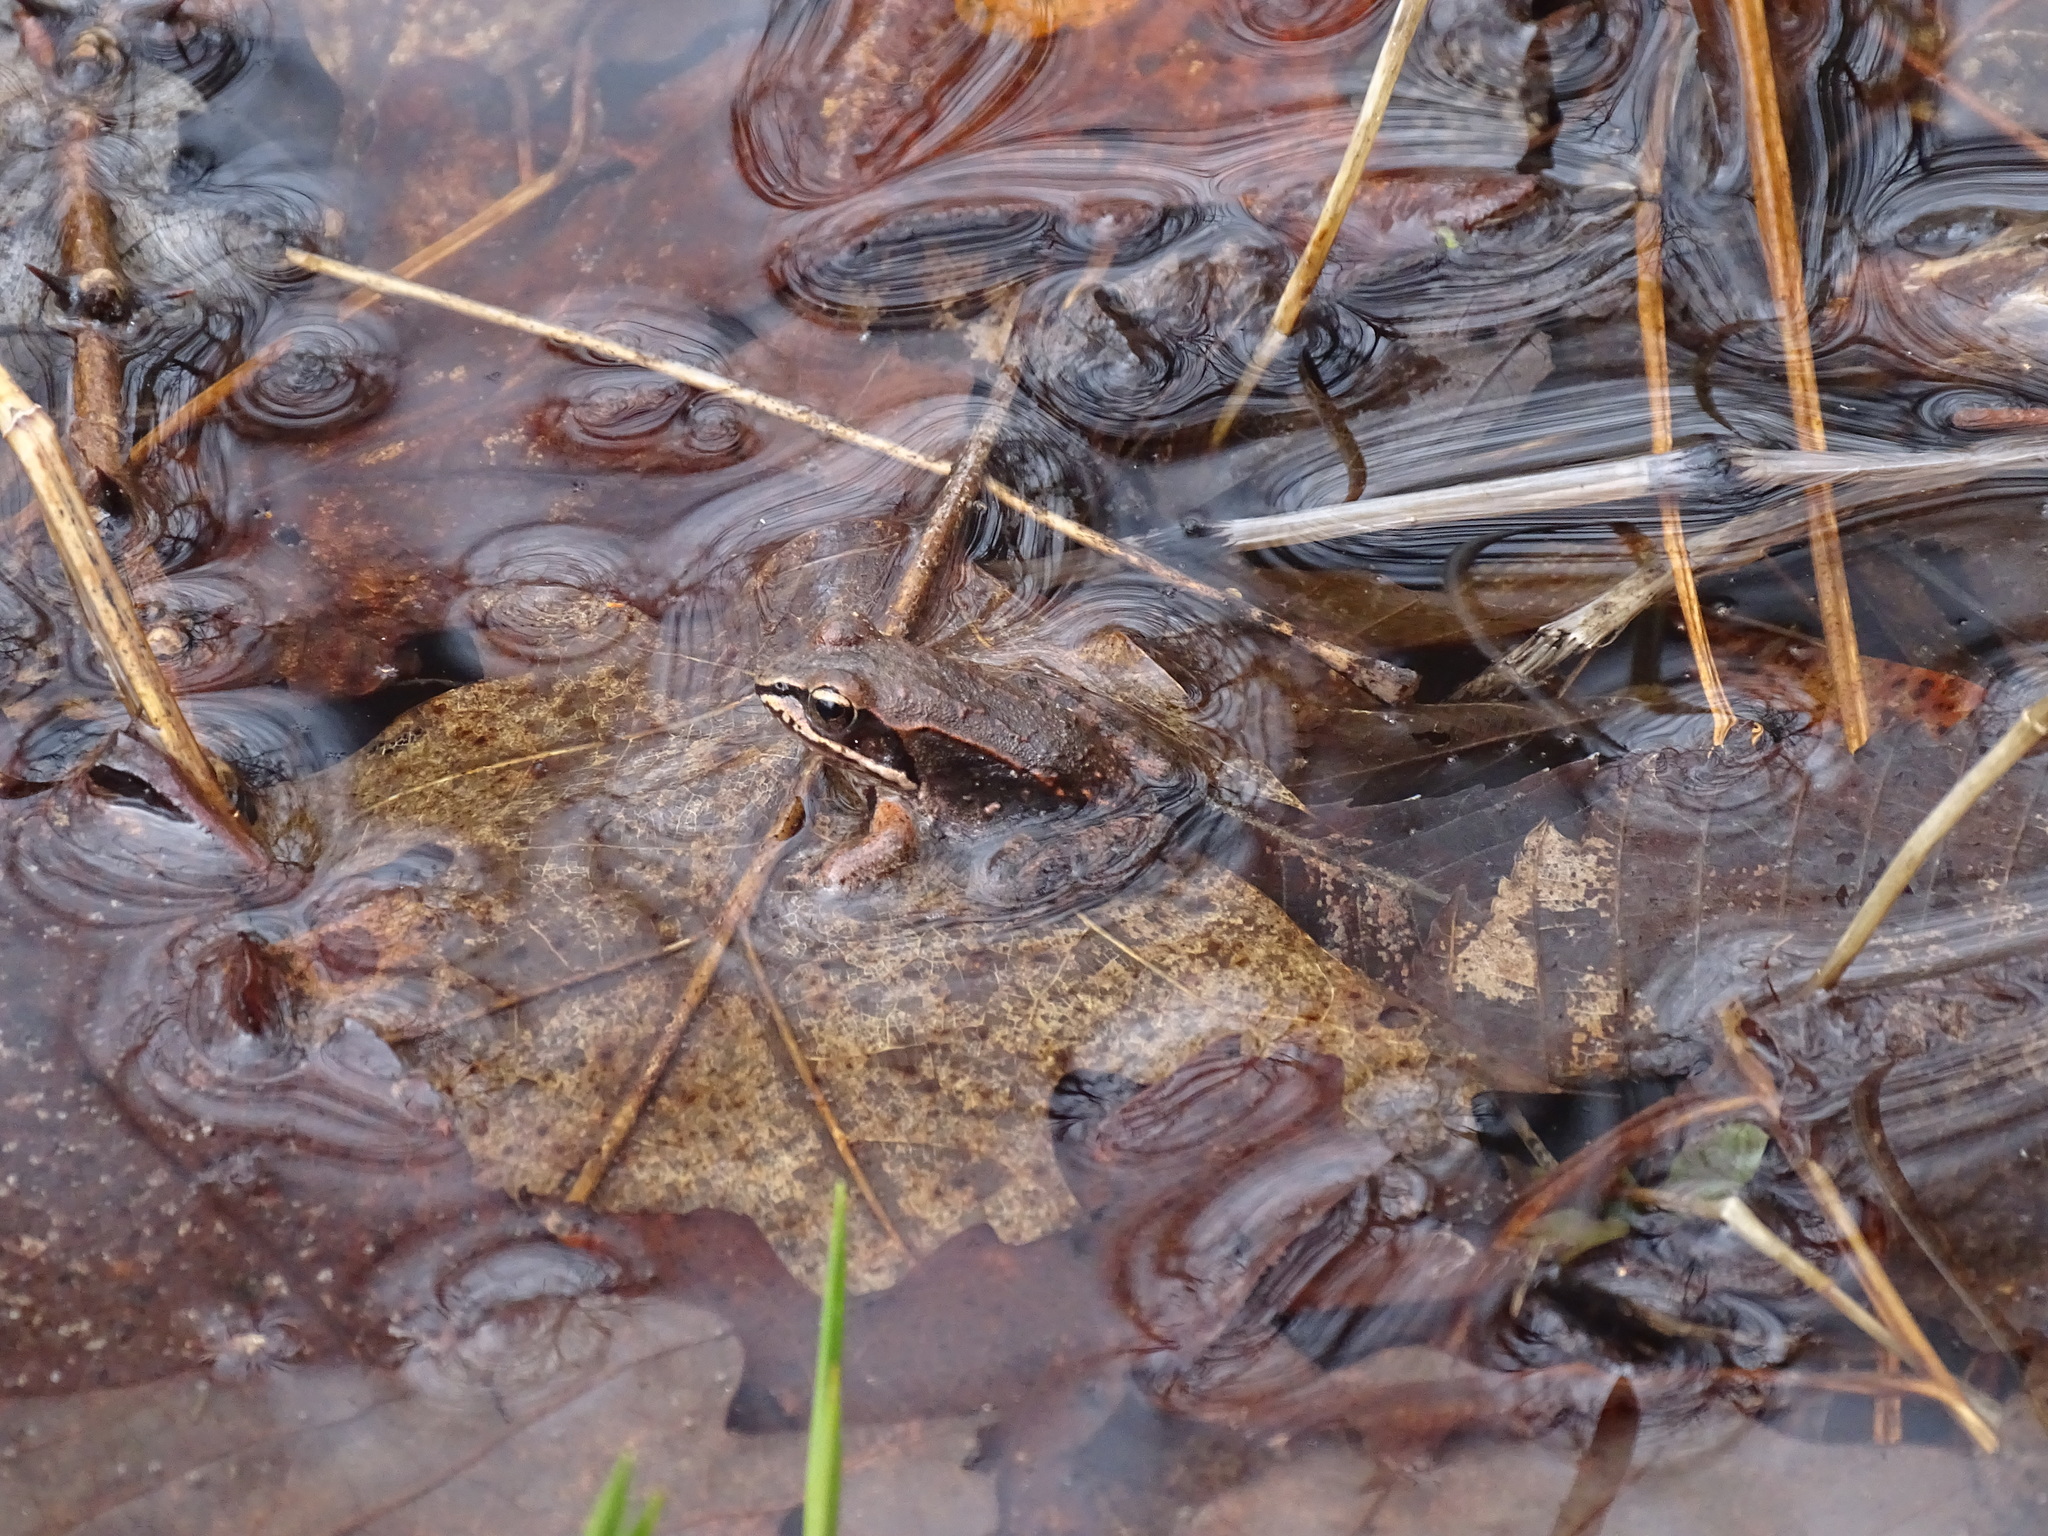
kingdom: Animalia
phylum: Chordata
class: Amphibia
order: Anura
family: Ranidae
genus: Lithobates
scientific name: Lithobates sylvaticus
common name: Wood frog
